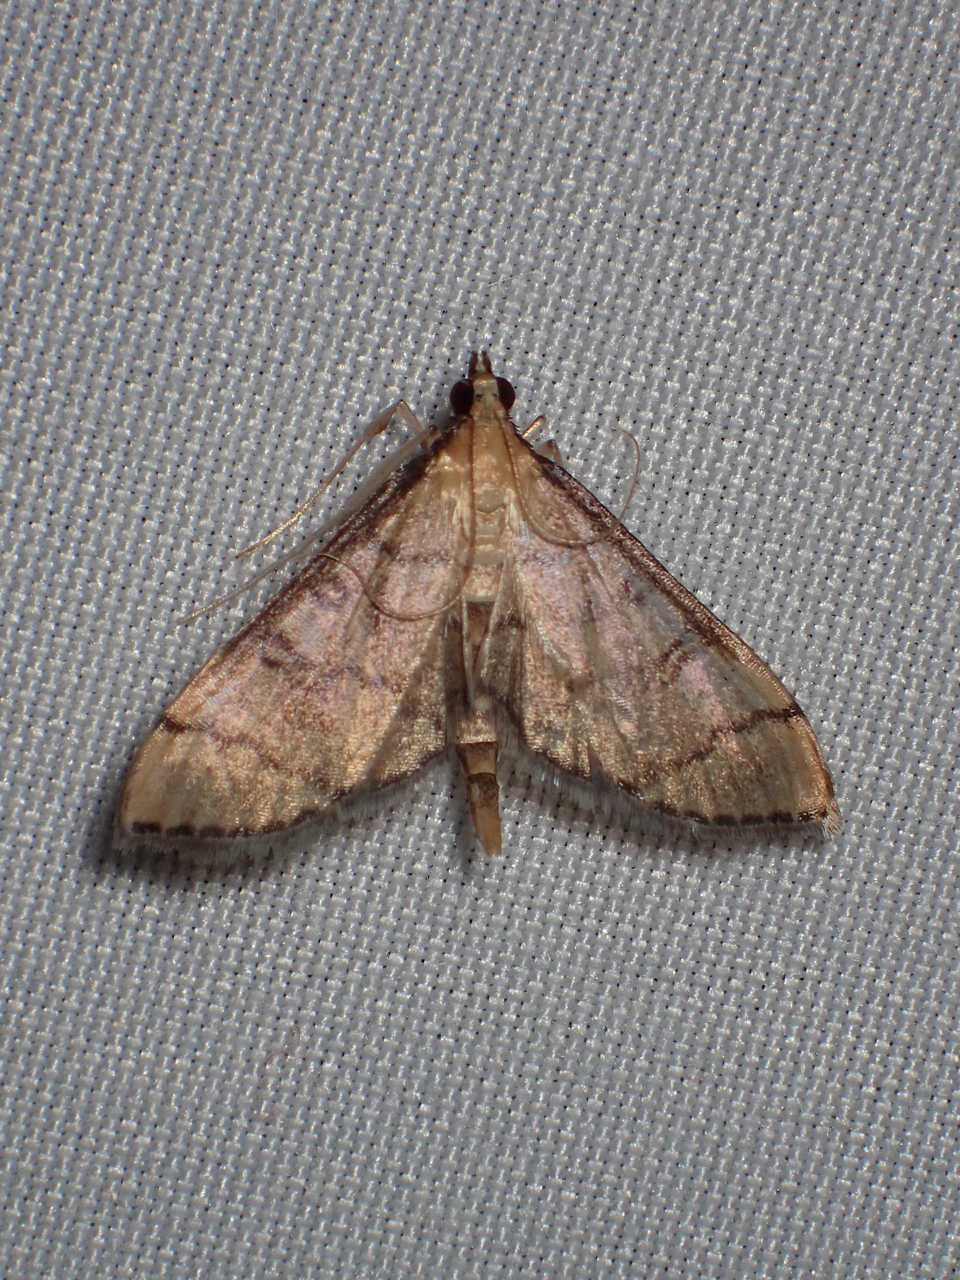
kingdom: Animalia
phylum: Arthropoda
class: Insecta
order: Lepidoptera
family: Crambidae
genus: Lamprosema
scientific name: Lamprosema Blepharomastix ranalis
